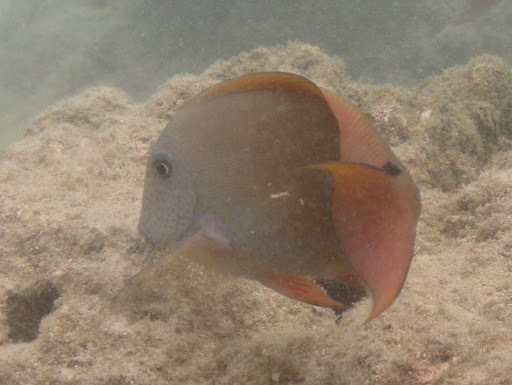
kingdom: Animalia
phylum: Chordata
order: Perciformes
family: Acanthuridae
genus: Acanthurus
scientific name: Acanthurus nigrofuscus
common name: Blackspot surgeonfish
